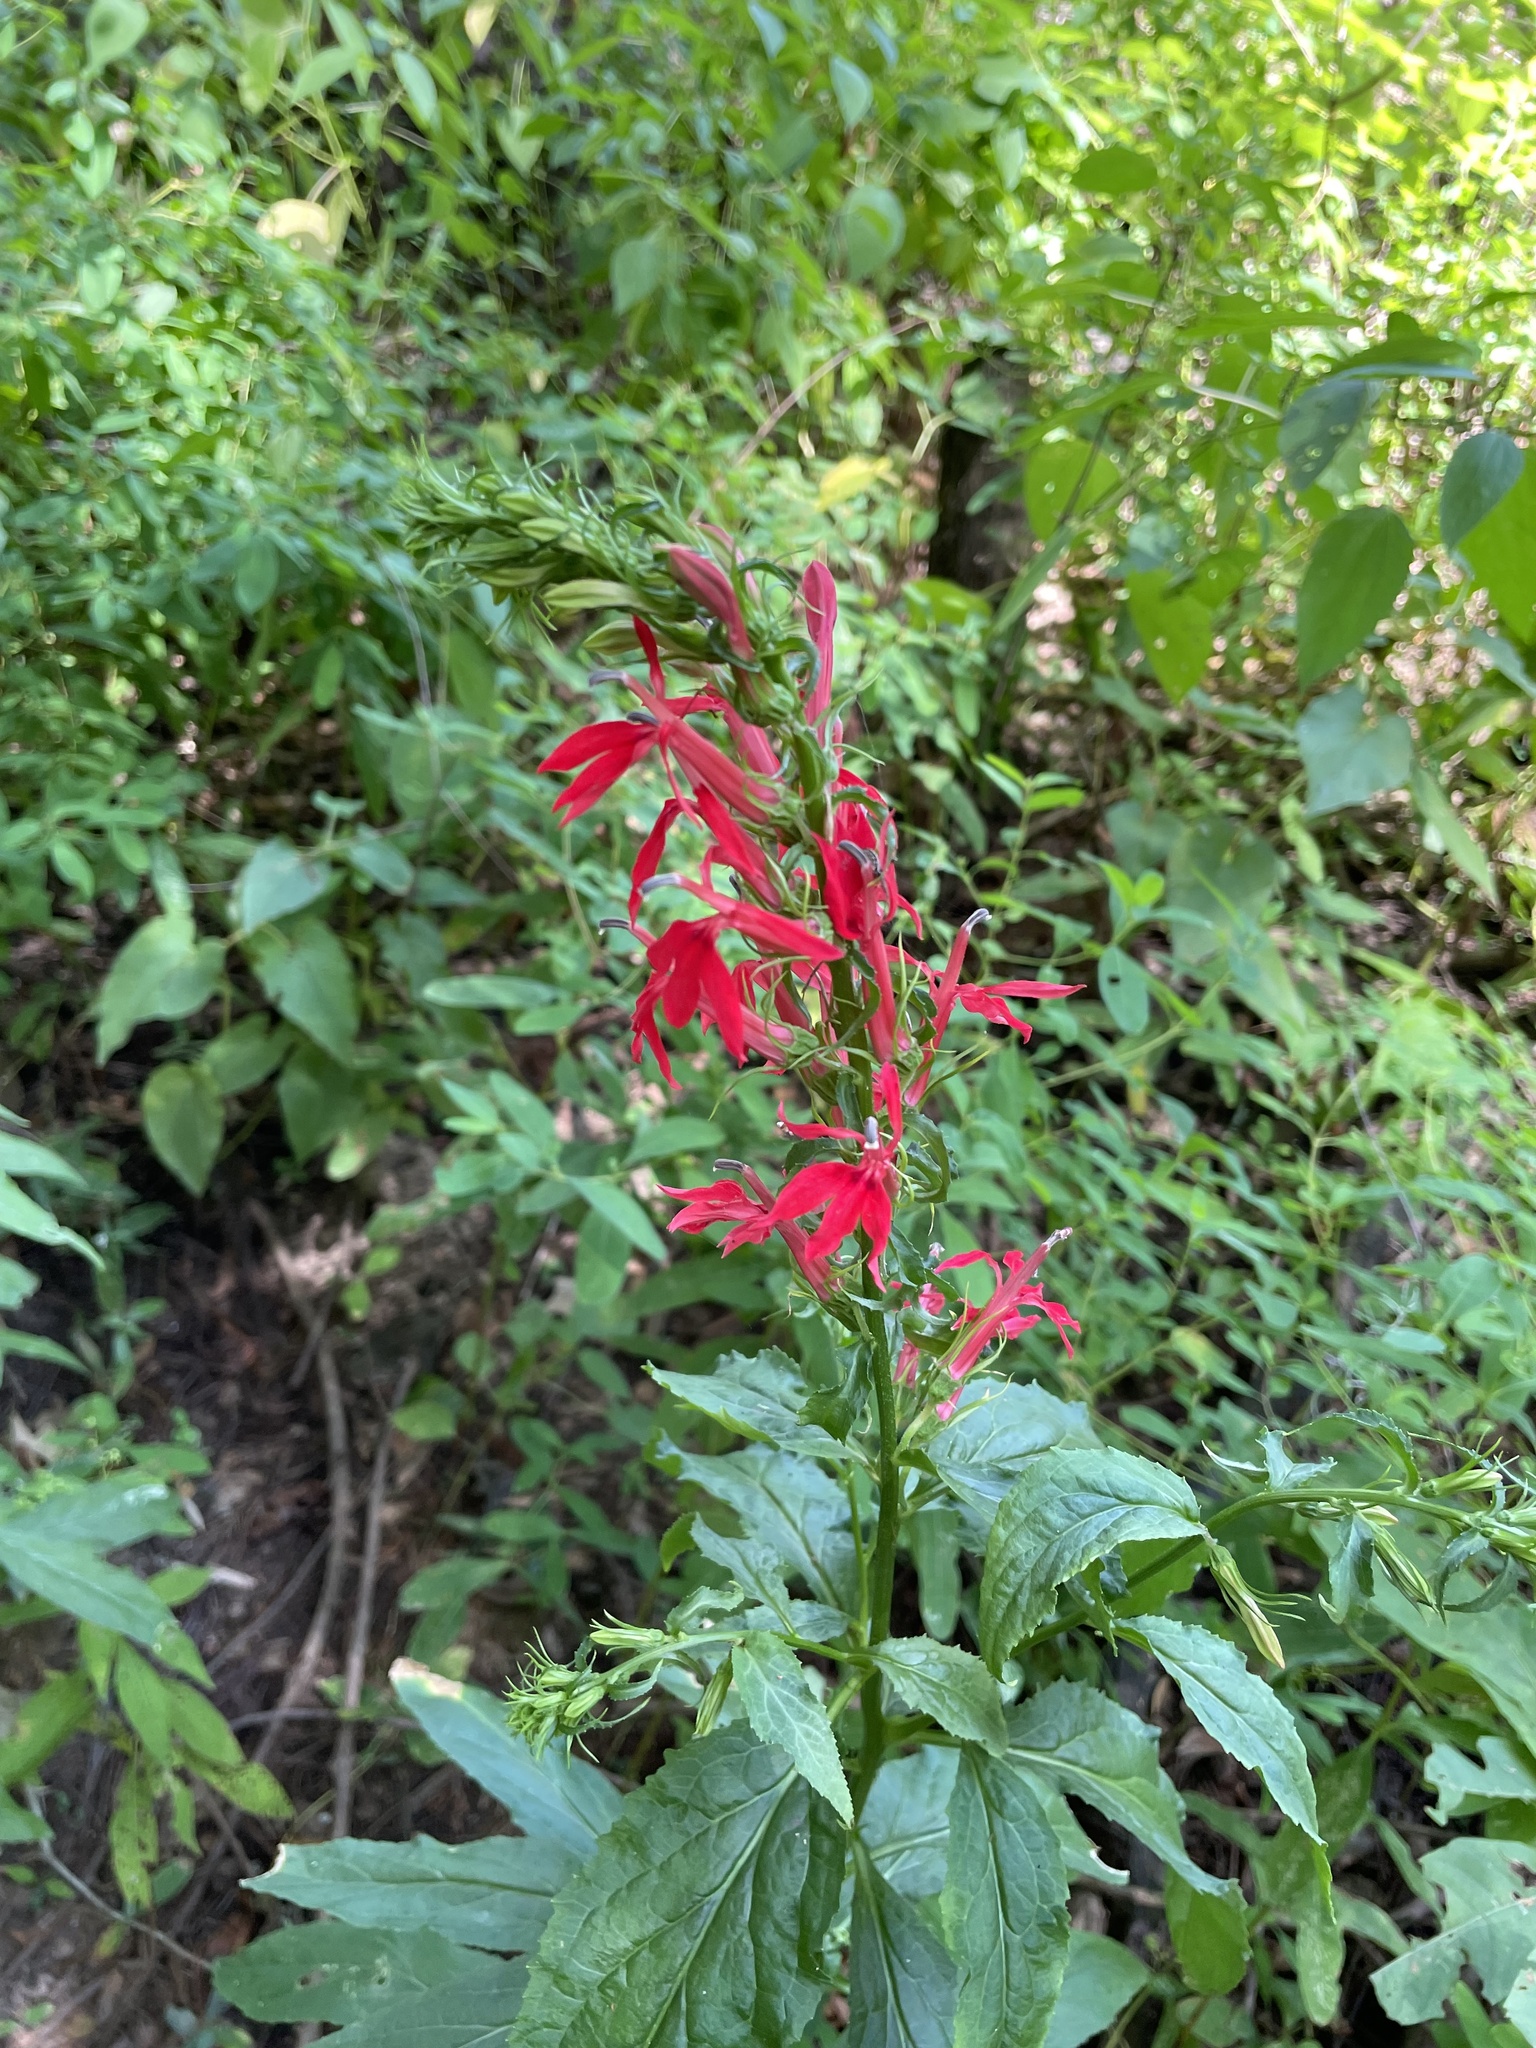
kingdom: Plantae
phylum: Tracheophyta
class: Magnoliopsida
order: Asterales
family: Campanulaceae
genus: Lobelia
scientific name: Lobelia cardinalis
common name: Cardinal flower
